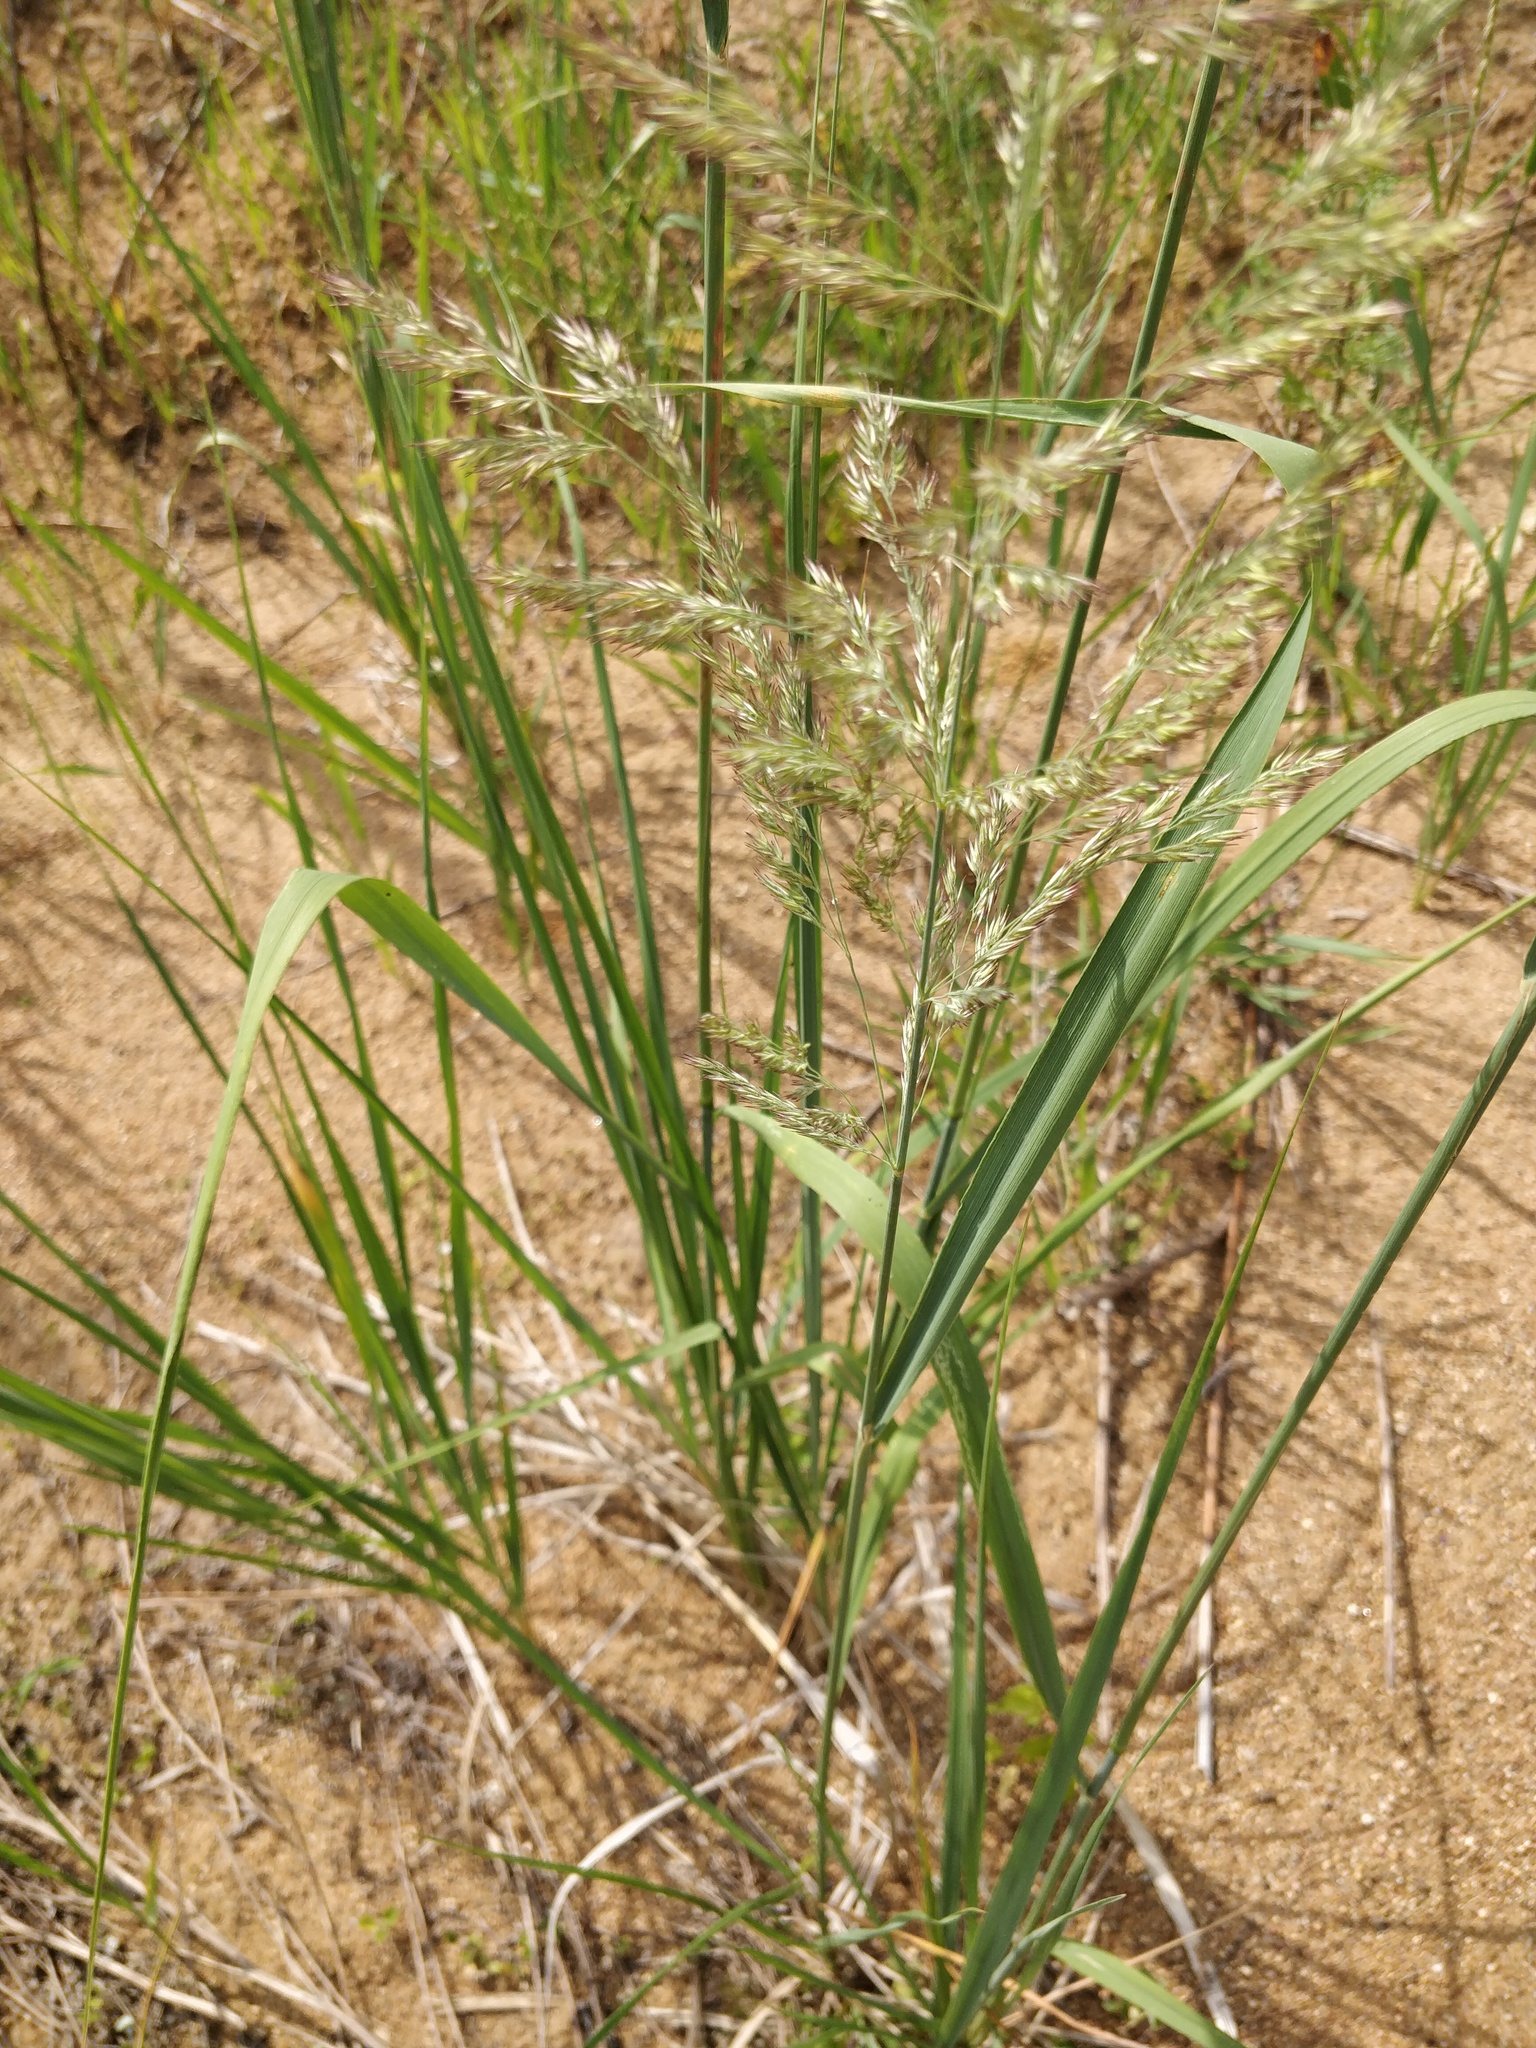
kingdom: Plantae
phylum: Tracheophyta
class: Liliopsida
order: Poales
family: Poaceae
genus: Calamagrostis
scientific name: Calamagrostis epigejos
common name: Wood small-reed
